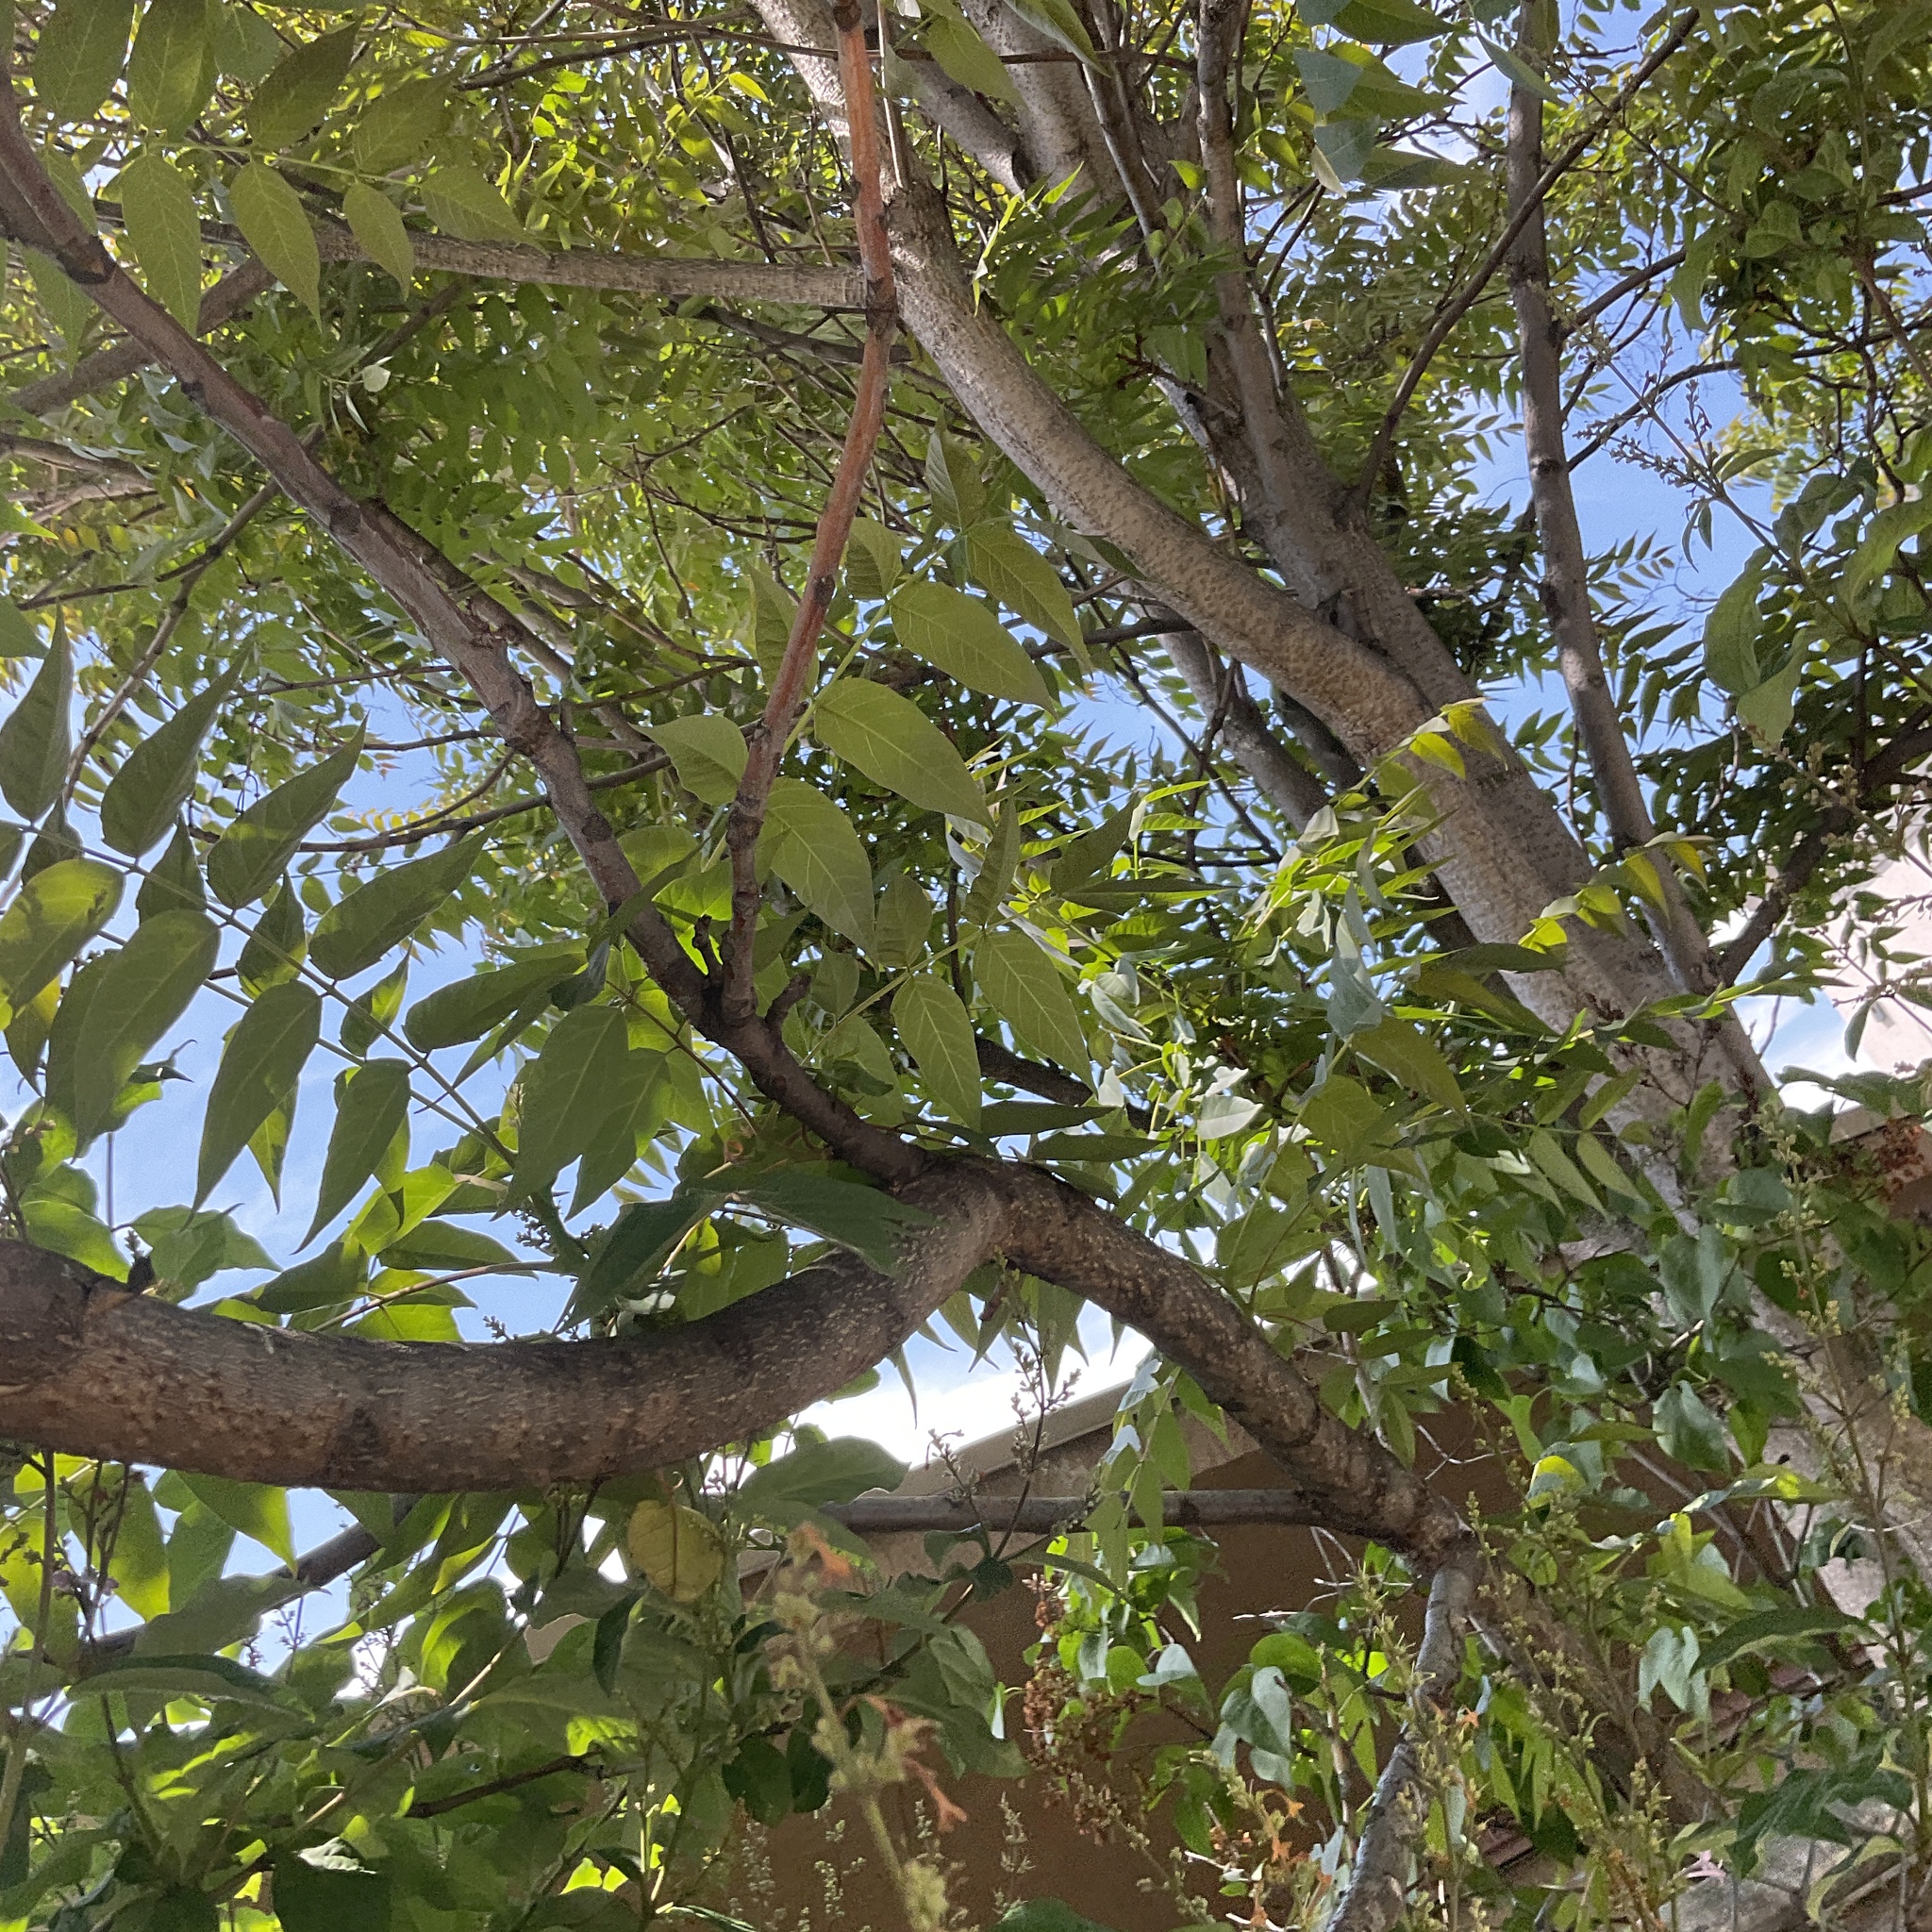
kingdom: Plantae
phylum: Tracheophyta
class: Magnoliopsida
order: Sapindales
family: Simaroubaceae
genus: Ailanthus
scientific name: Ailanthus altissima
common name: Tree-of-heaven
